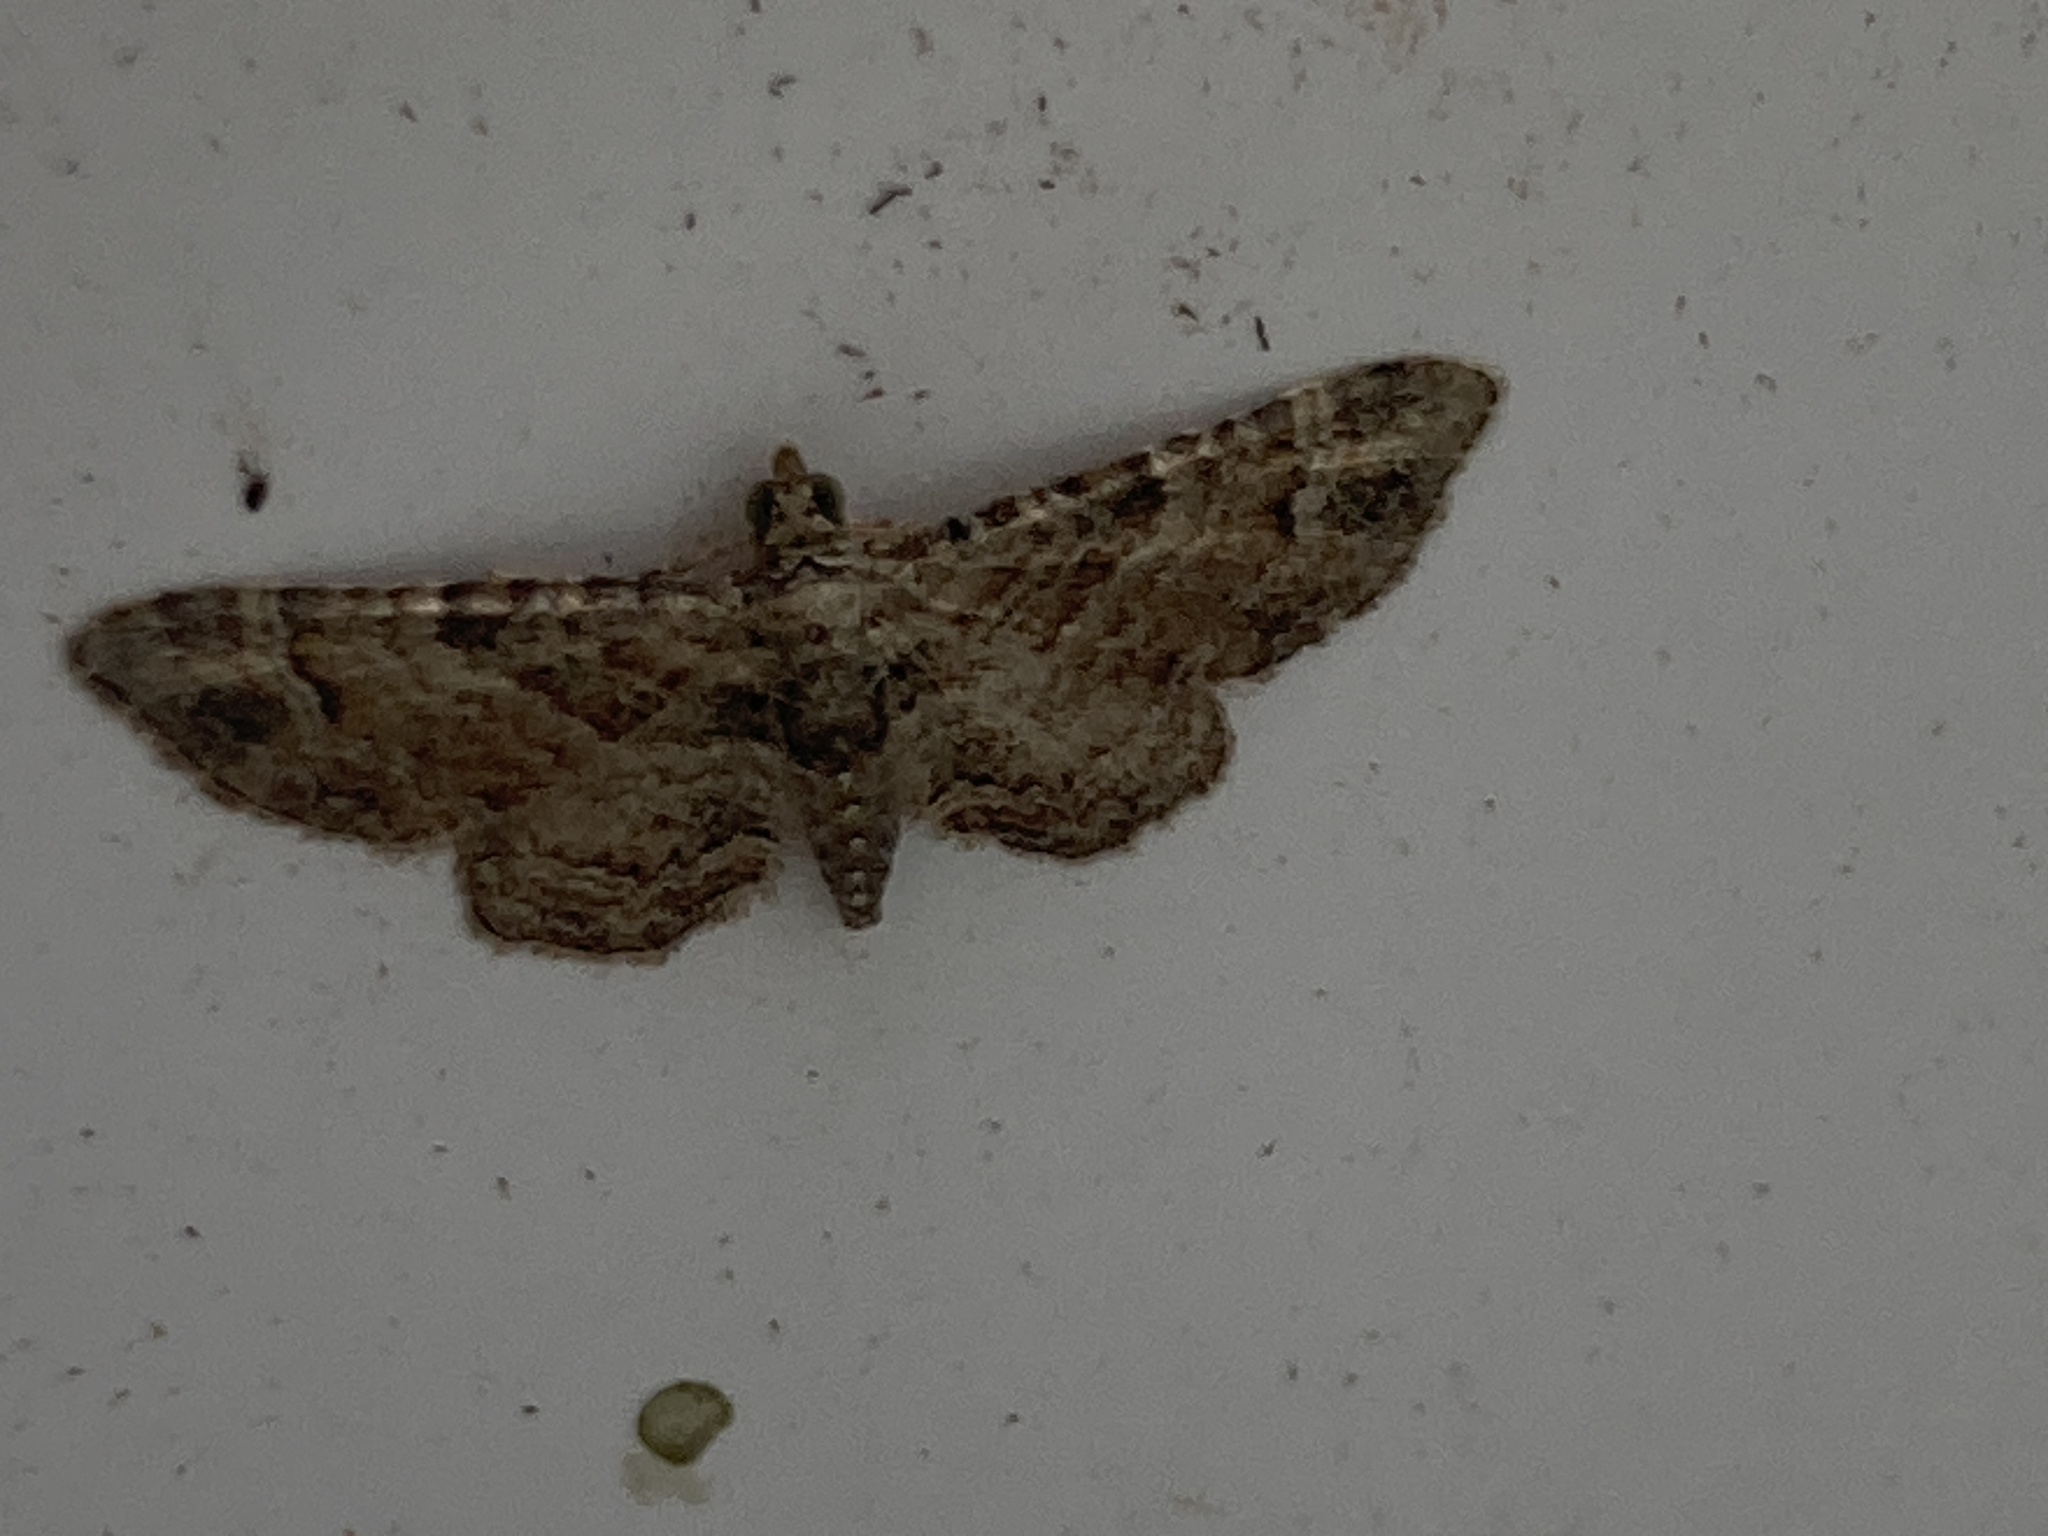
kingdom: Animalia
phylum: Arthropoda
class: Insecta
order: Lepidoptera
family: Geometridae
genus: Gymnoscelis
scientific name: Gymnoscelis rufifasciata
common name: Double-striped pug
